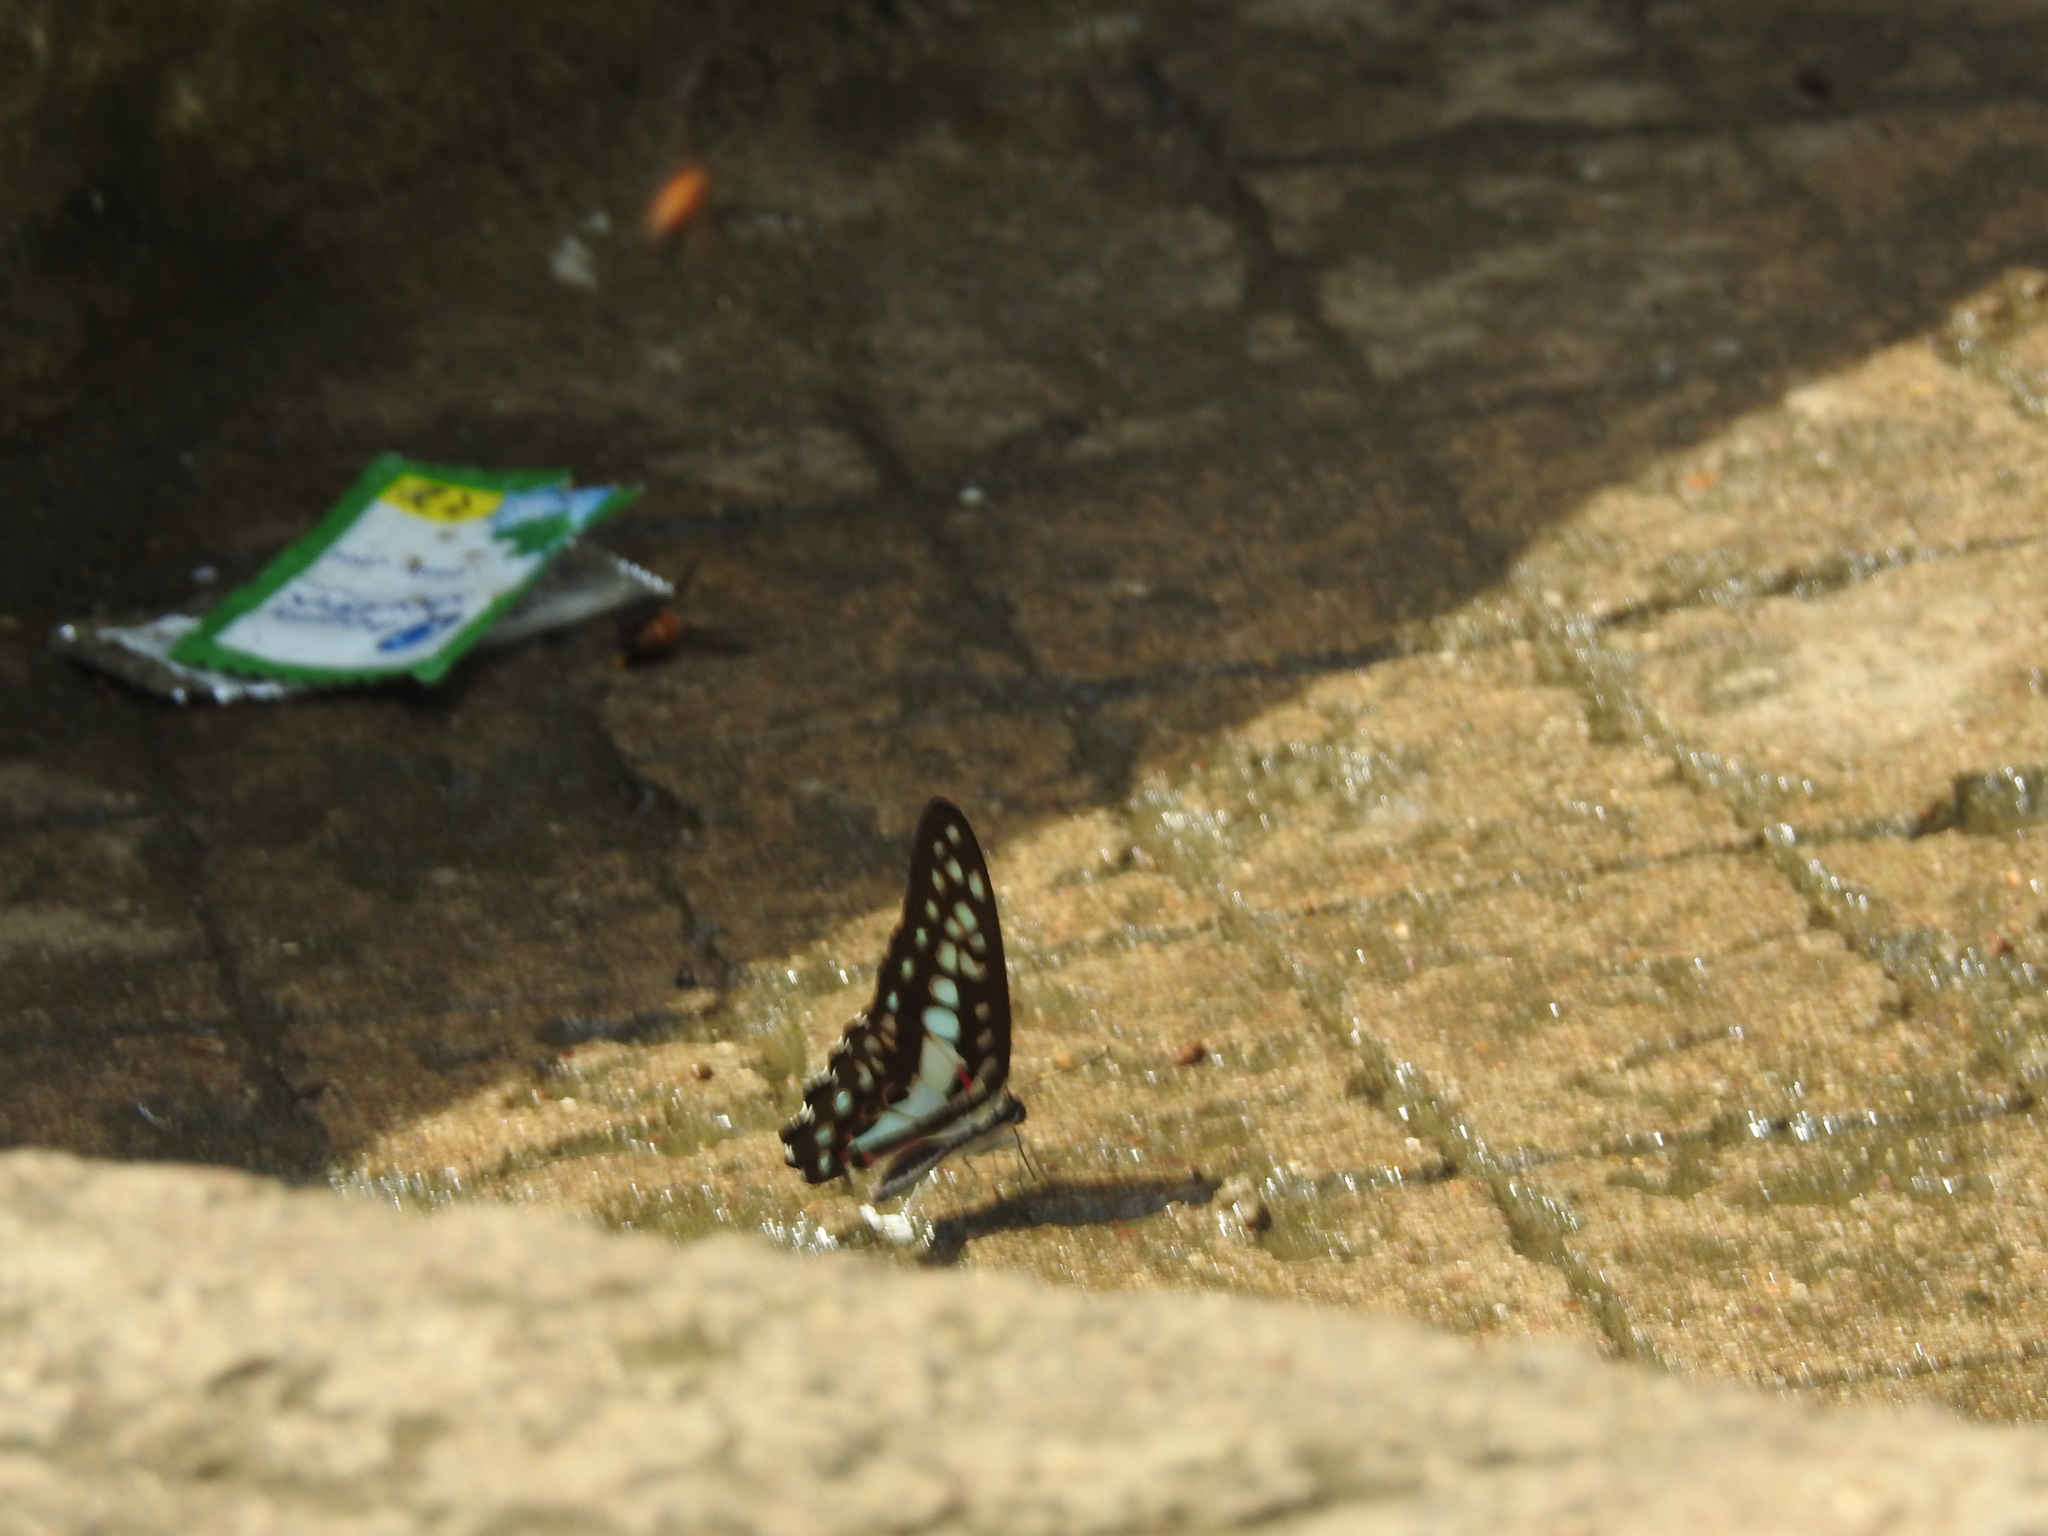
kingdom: Animalia
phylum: Arthropoda
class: Insecta
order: Lepidoptera
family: Papilionidae
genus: Graphium
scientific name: Graphium doson
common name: Common jay
